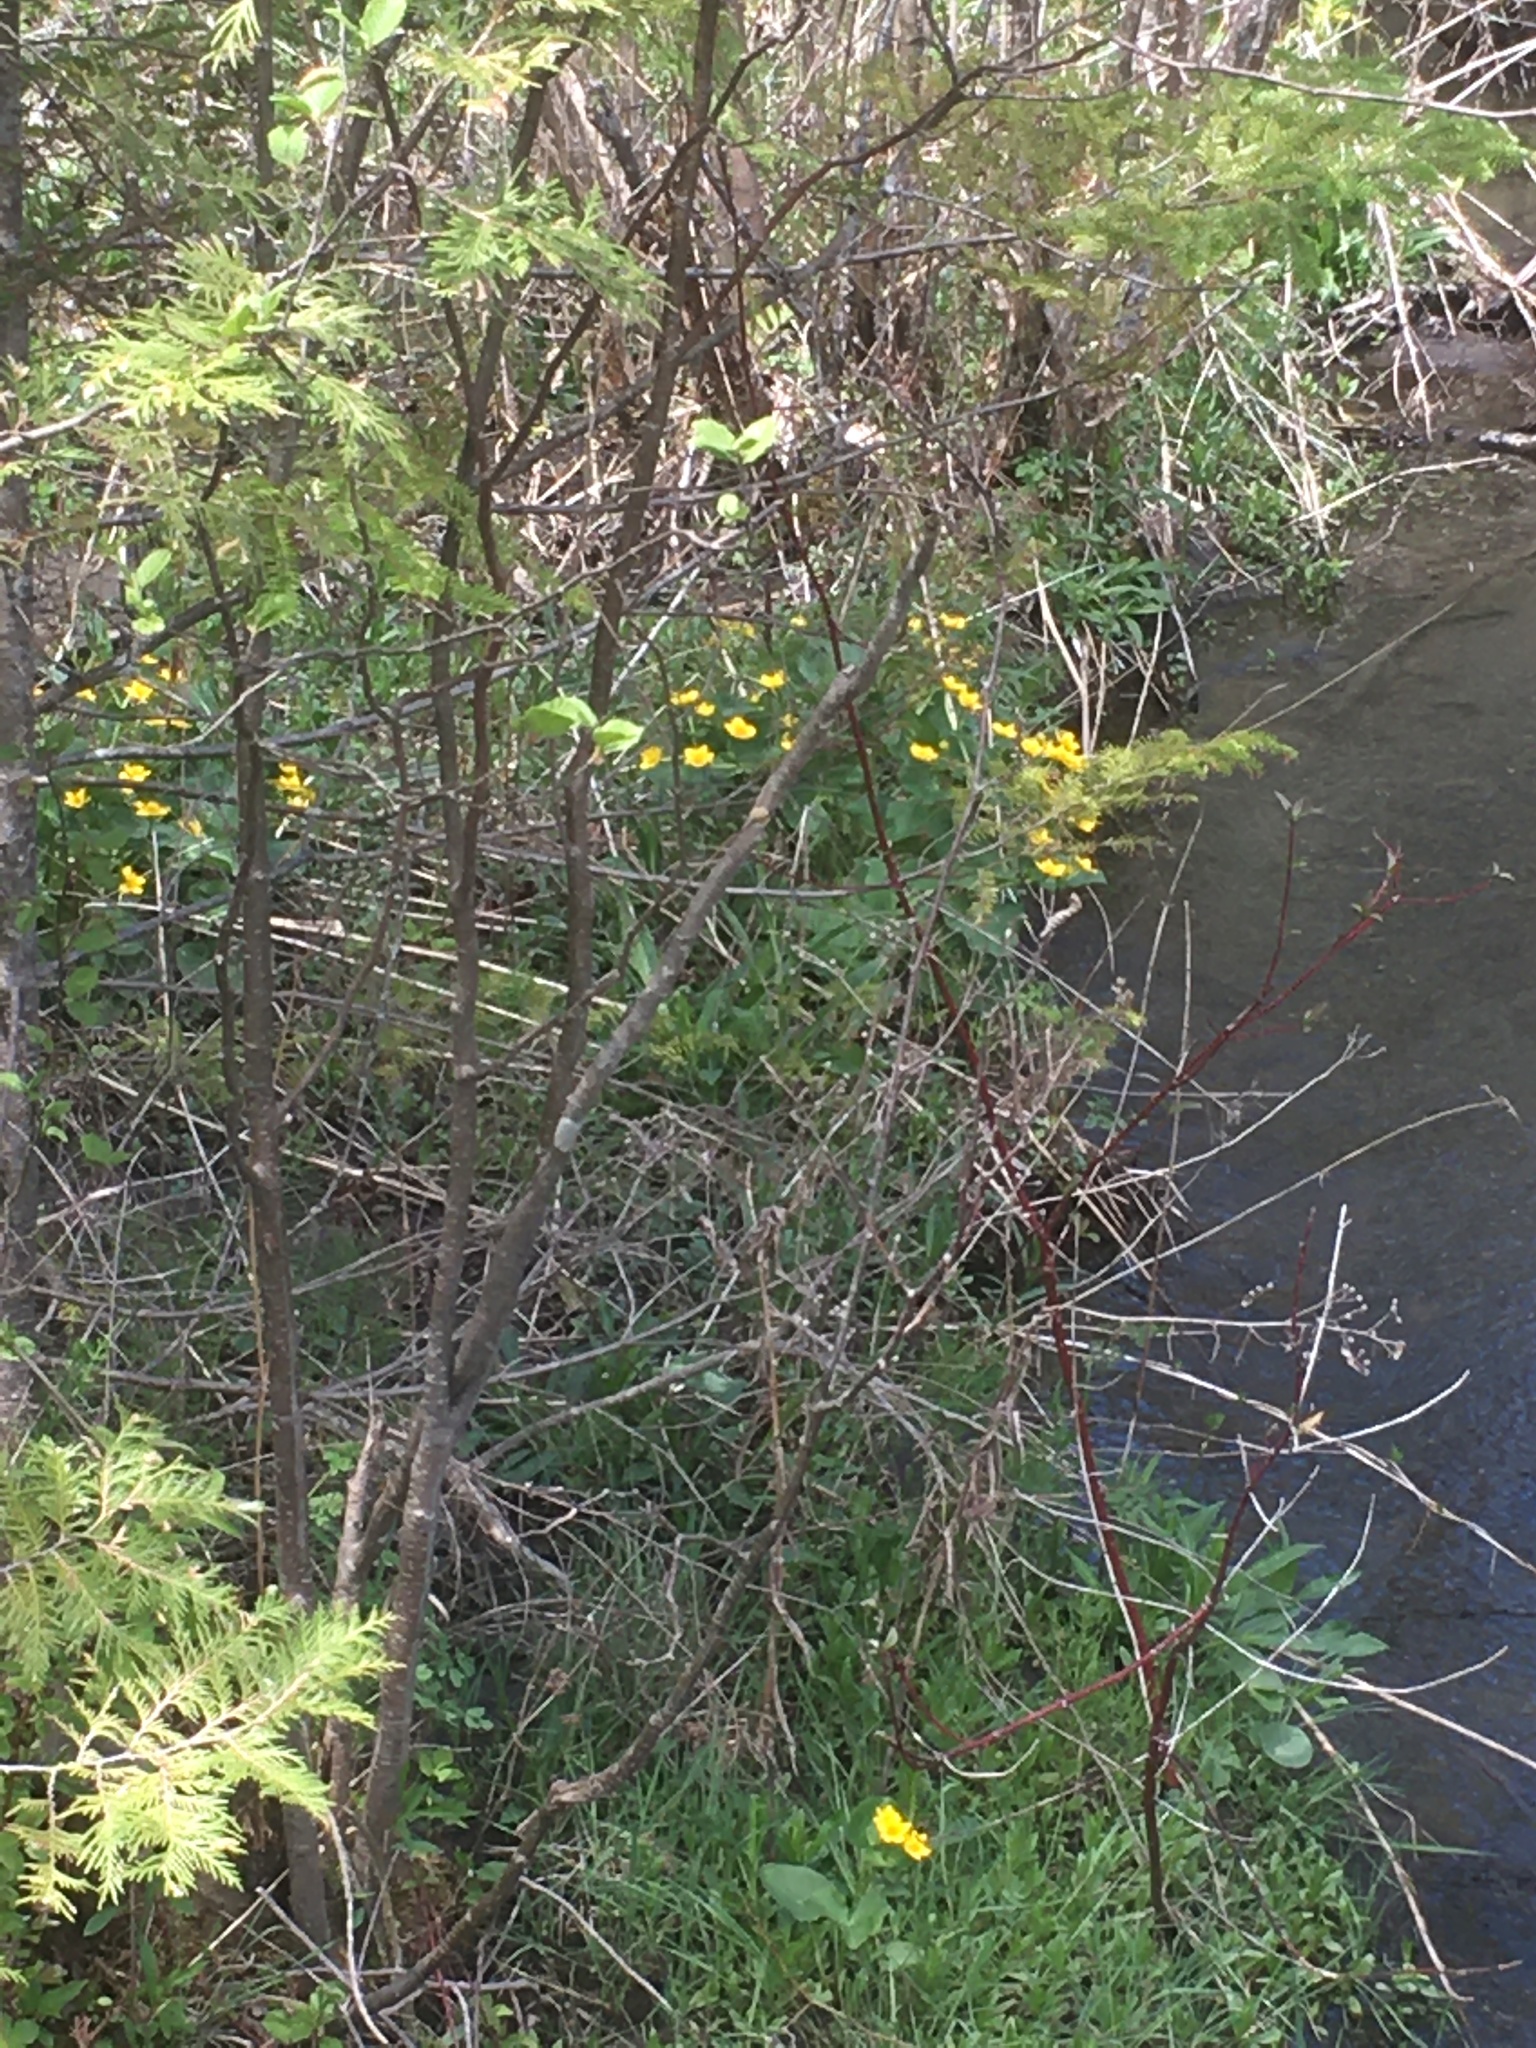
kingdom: Plantae
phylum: Tracheophyta
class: Magnoliopsida
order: Ranunculales
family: Ranunculaceae
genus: Caltha
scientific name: Caltha palustris
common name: Marsh marigold
